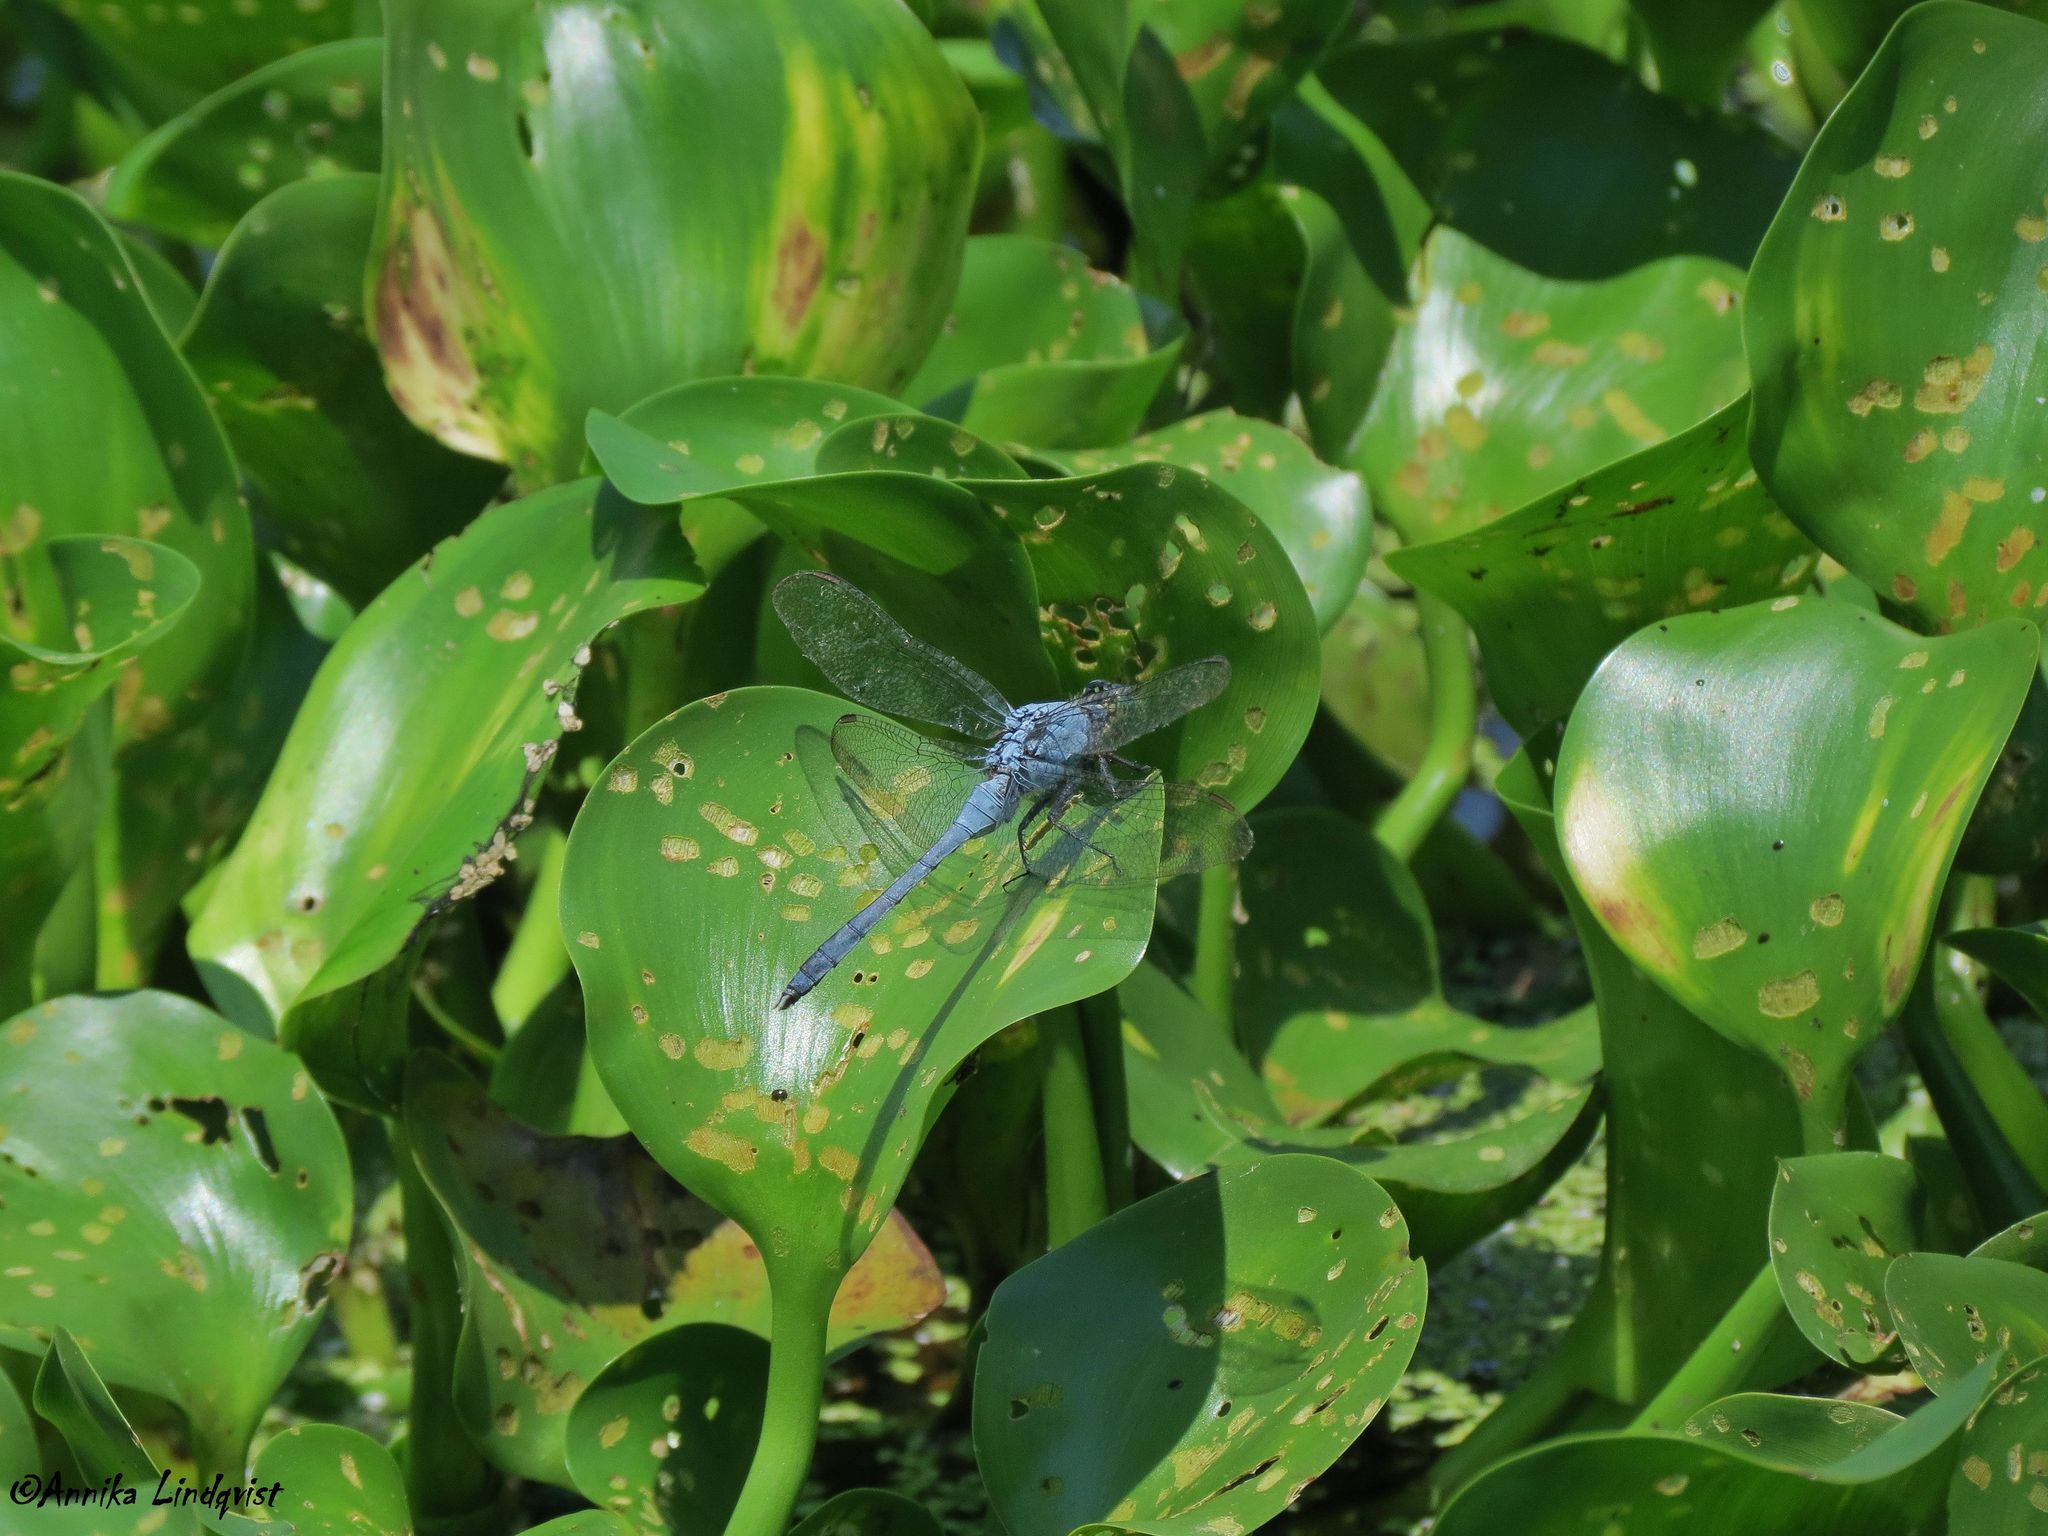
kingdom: Animalia
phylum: Arthropoda
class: Insecta
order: Odonata
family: Libellulidae
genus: Erythemis
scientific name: Erythemis simplicicollis
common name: Eastern pondhawk
